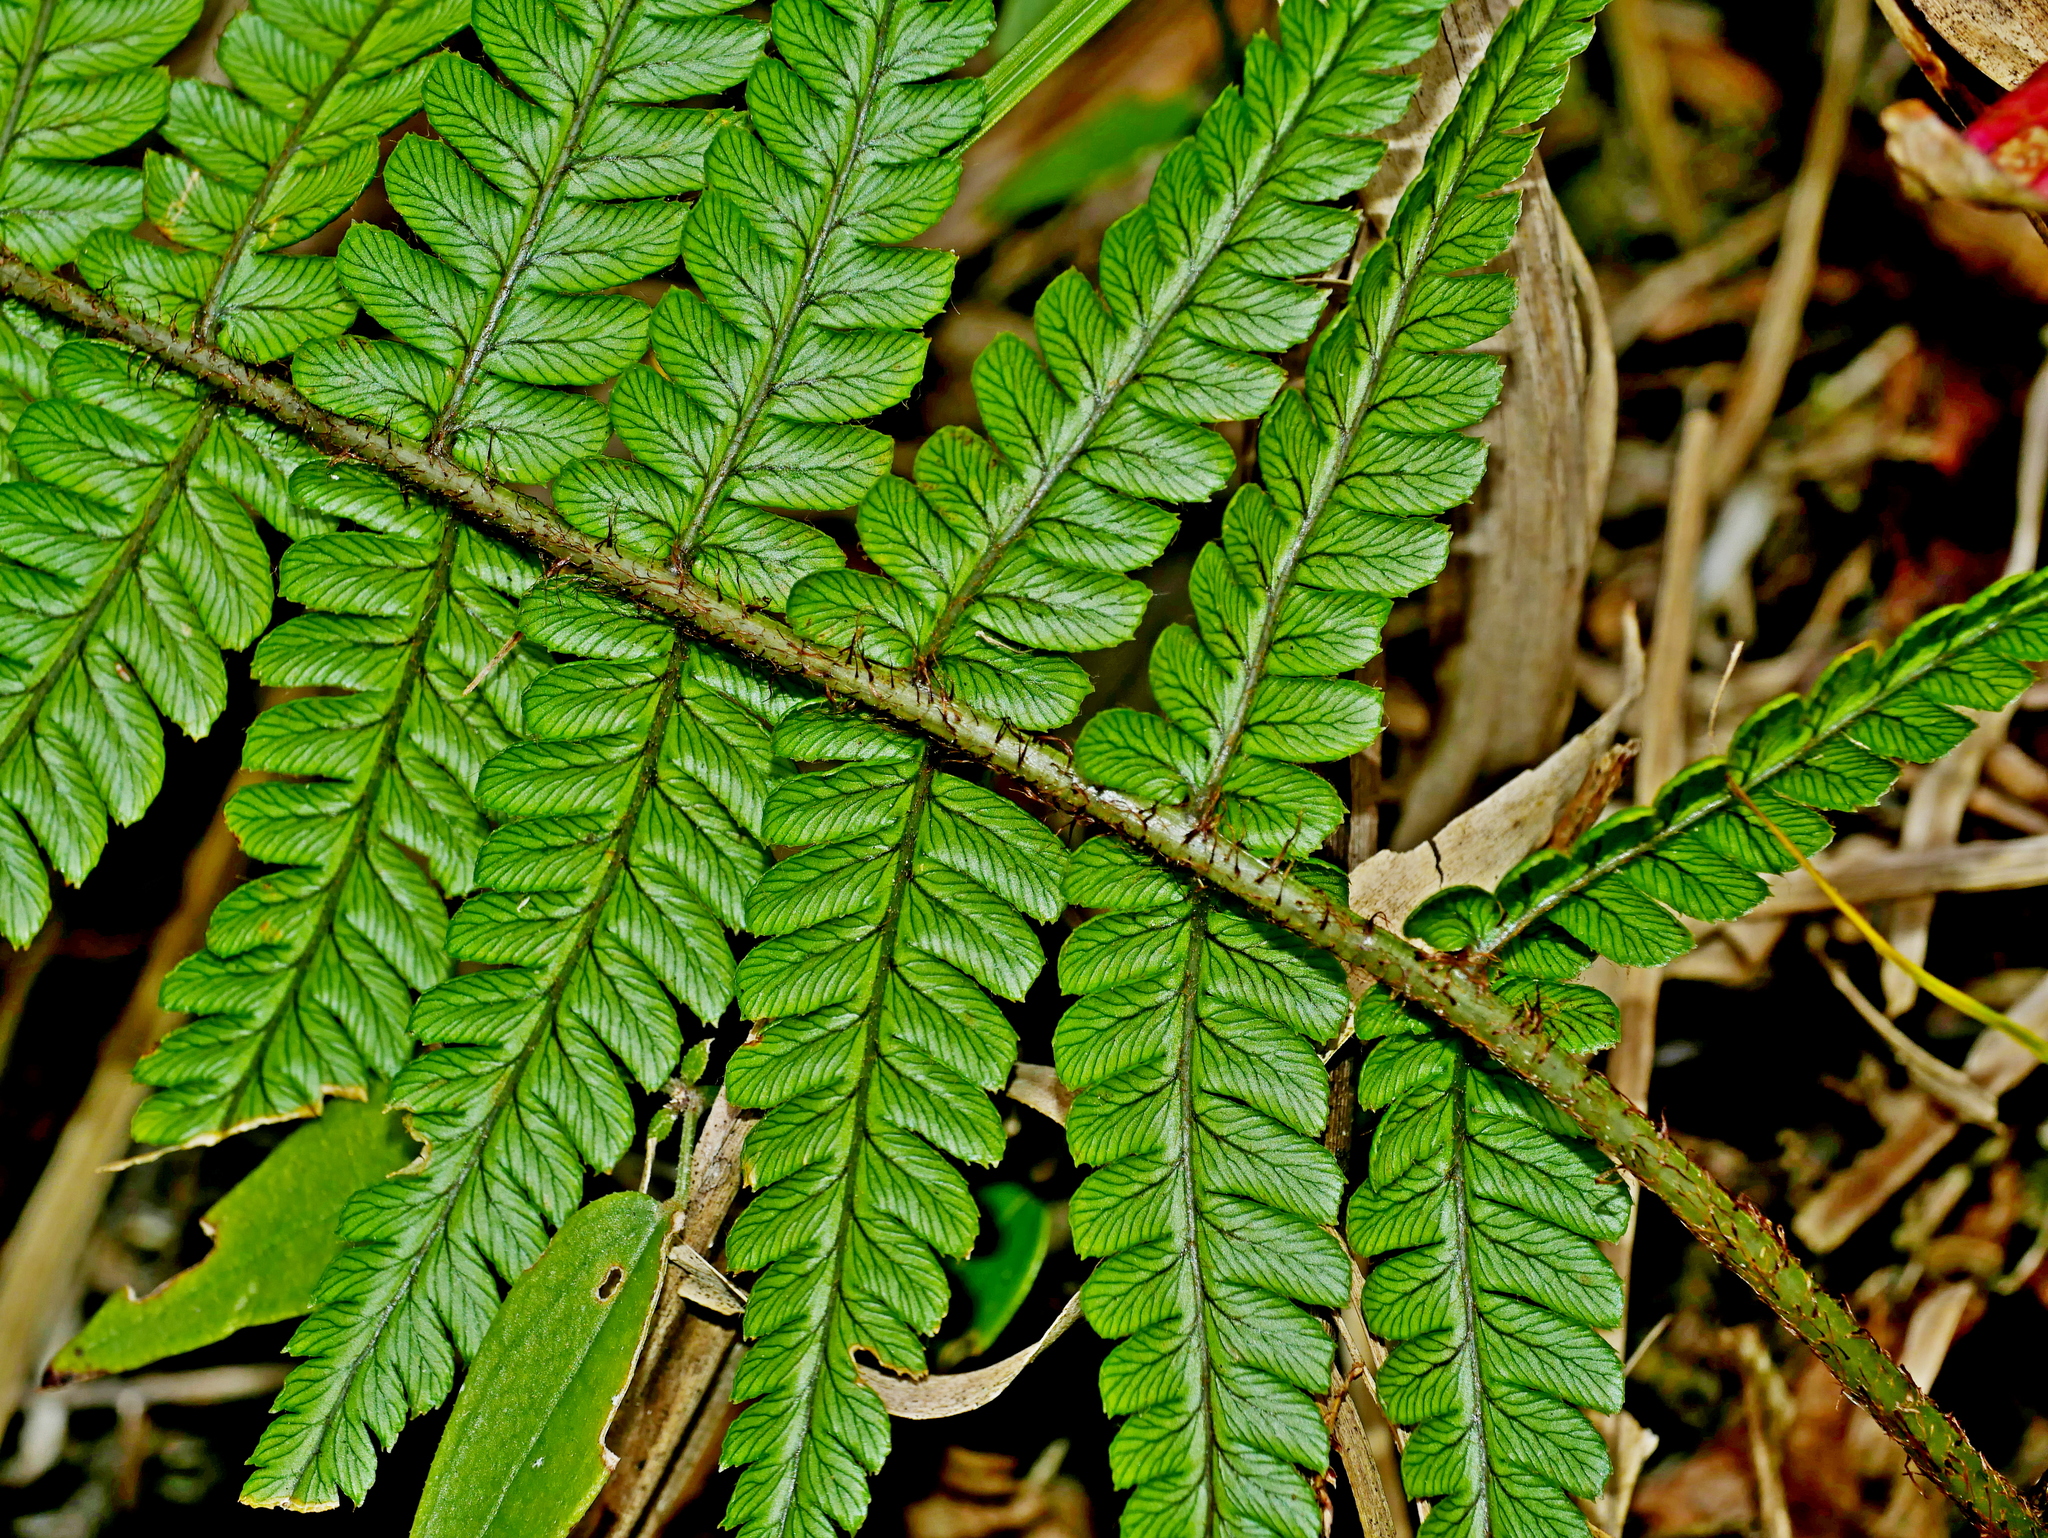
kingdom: Plantae
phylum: Tracheophyta
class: Polypodiopsida
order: Polypodiales
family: Dryopteridaceae
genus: Dryopteris
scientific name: Dryopteris lepidopoda
